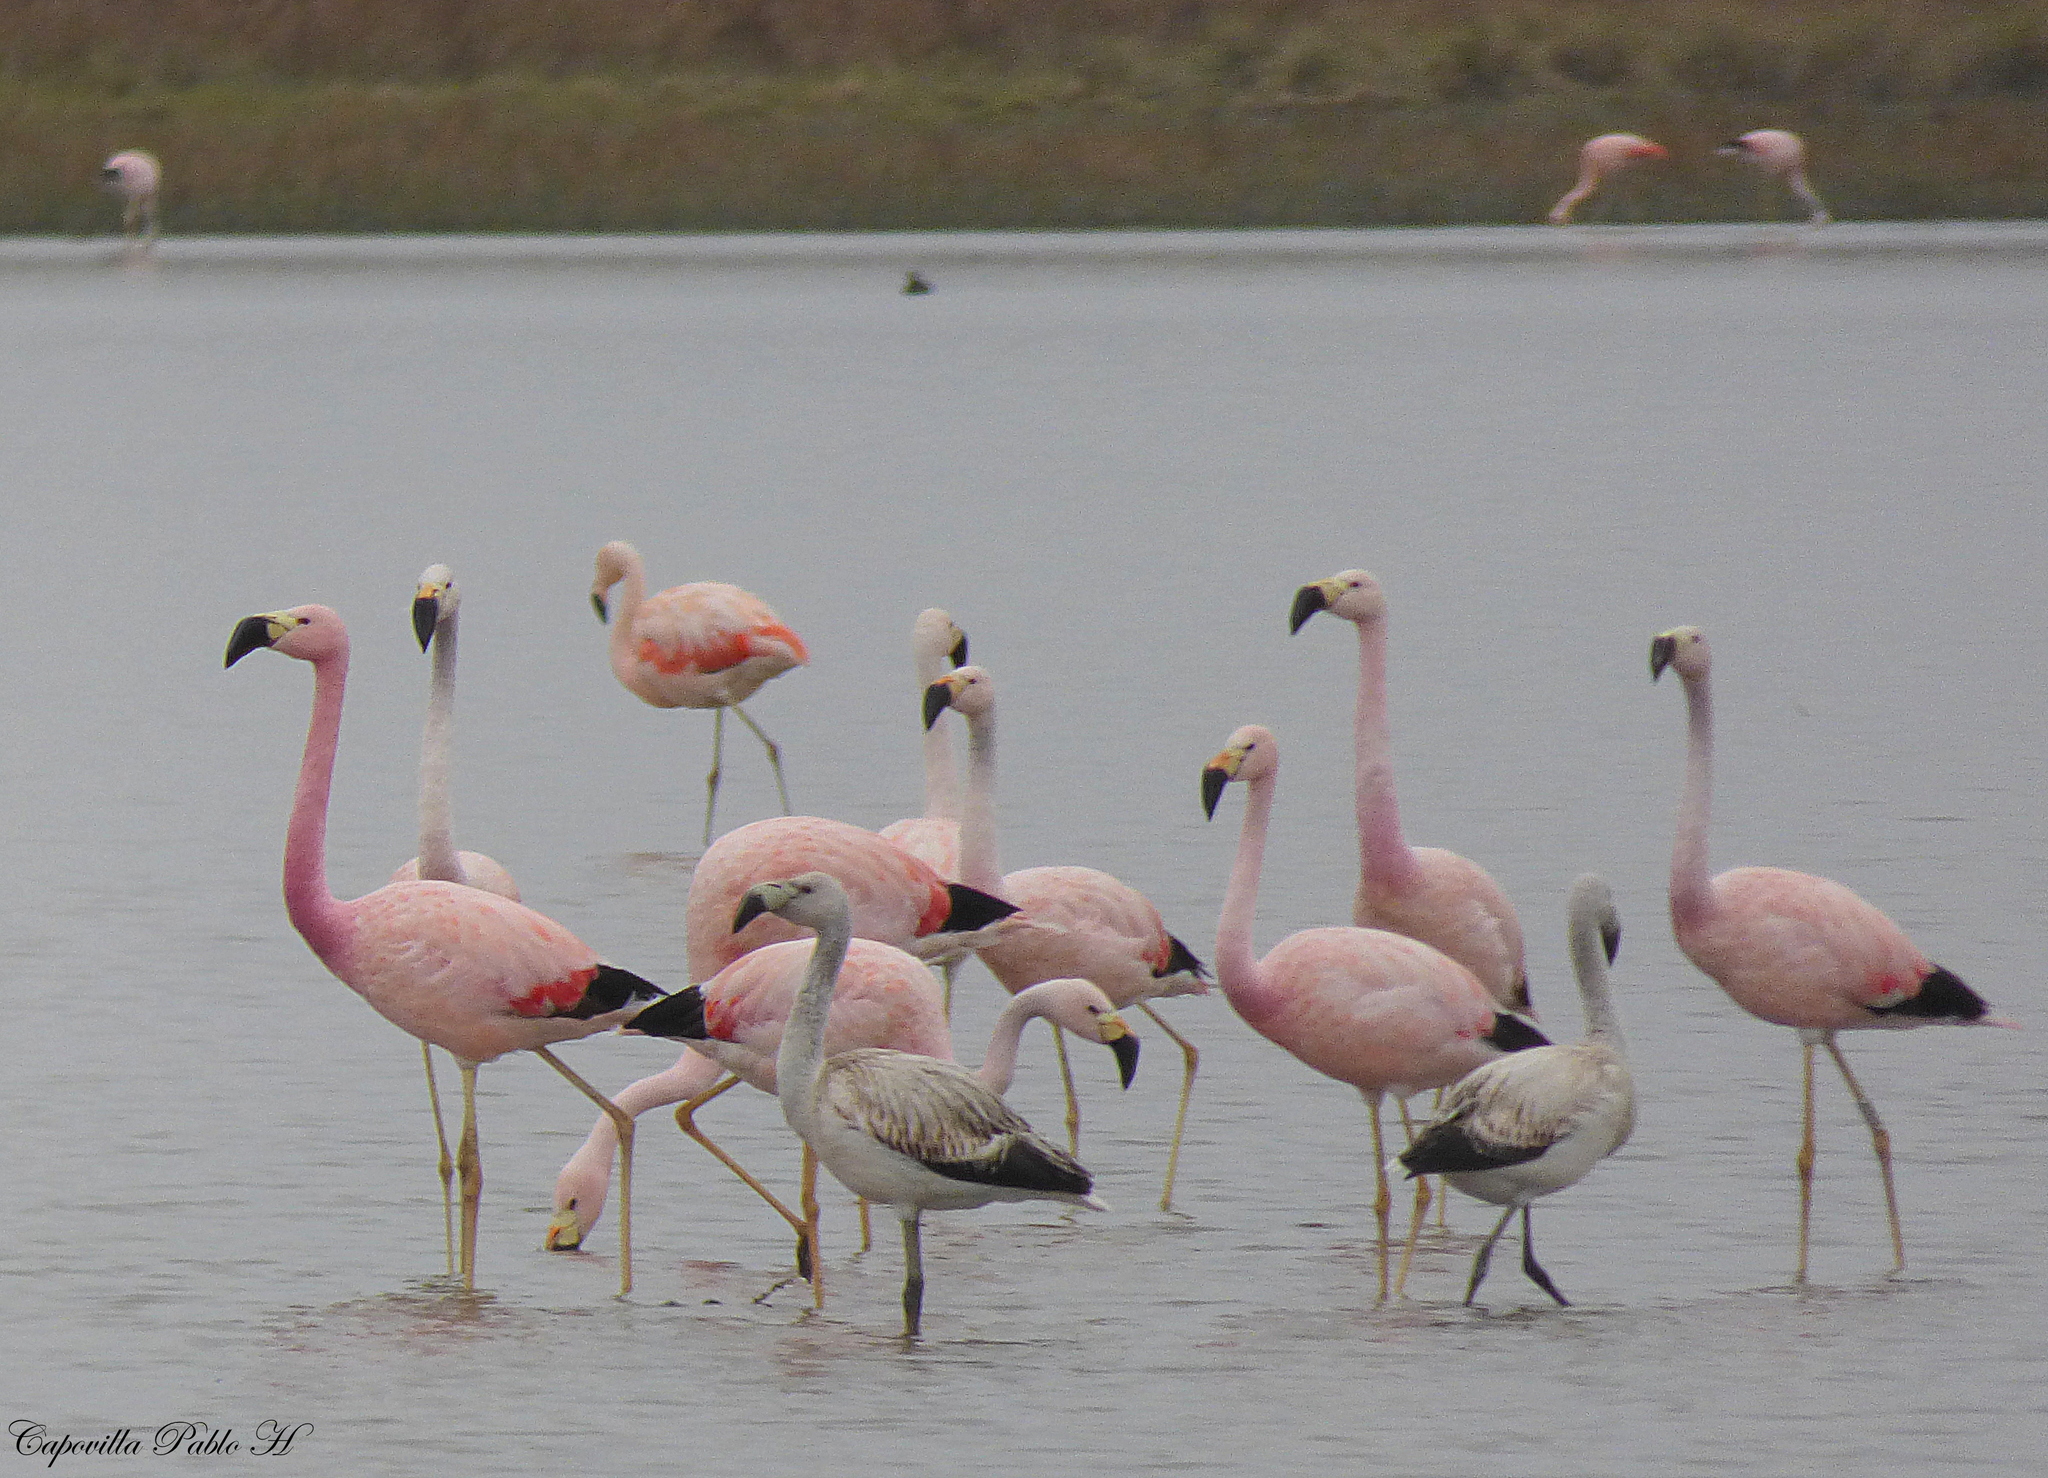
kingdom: Animalia
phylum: Chordata
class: Aves
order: Phoenicopteriformes
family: Phoenicopteridae
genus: Phoenicoparrus
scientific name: Phoenicoparrus andinus
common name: Andean flamingo
